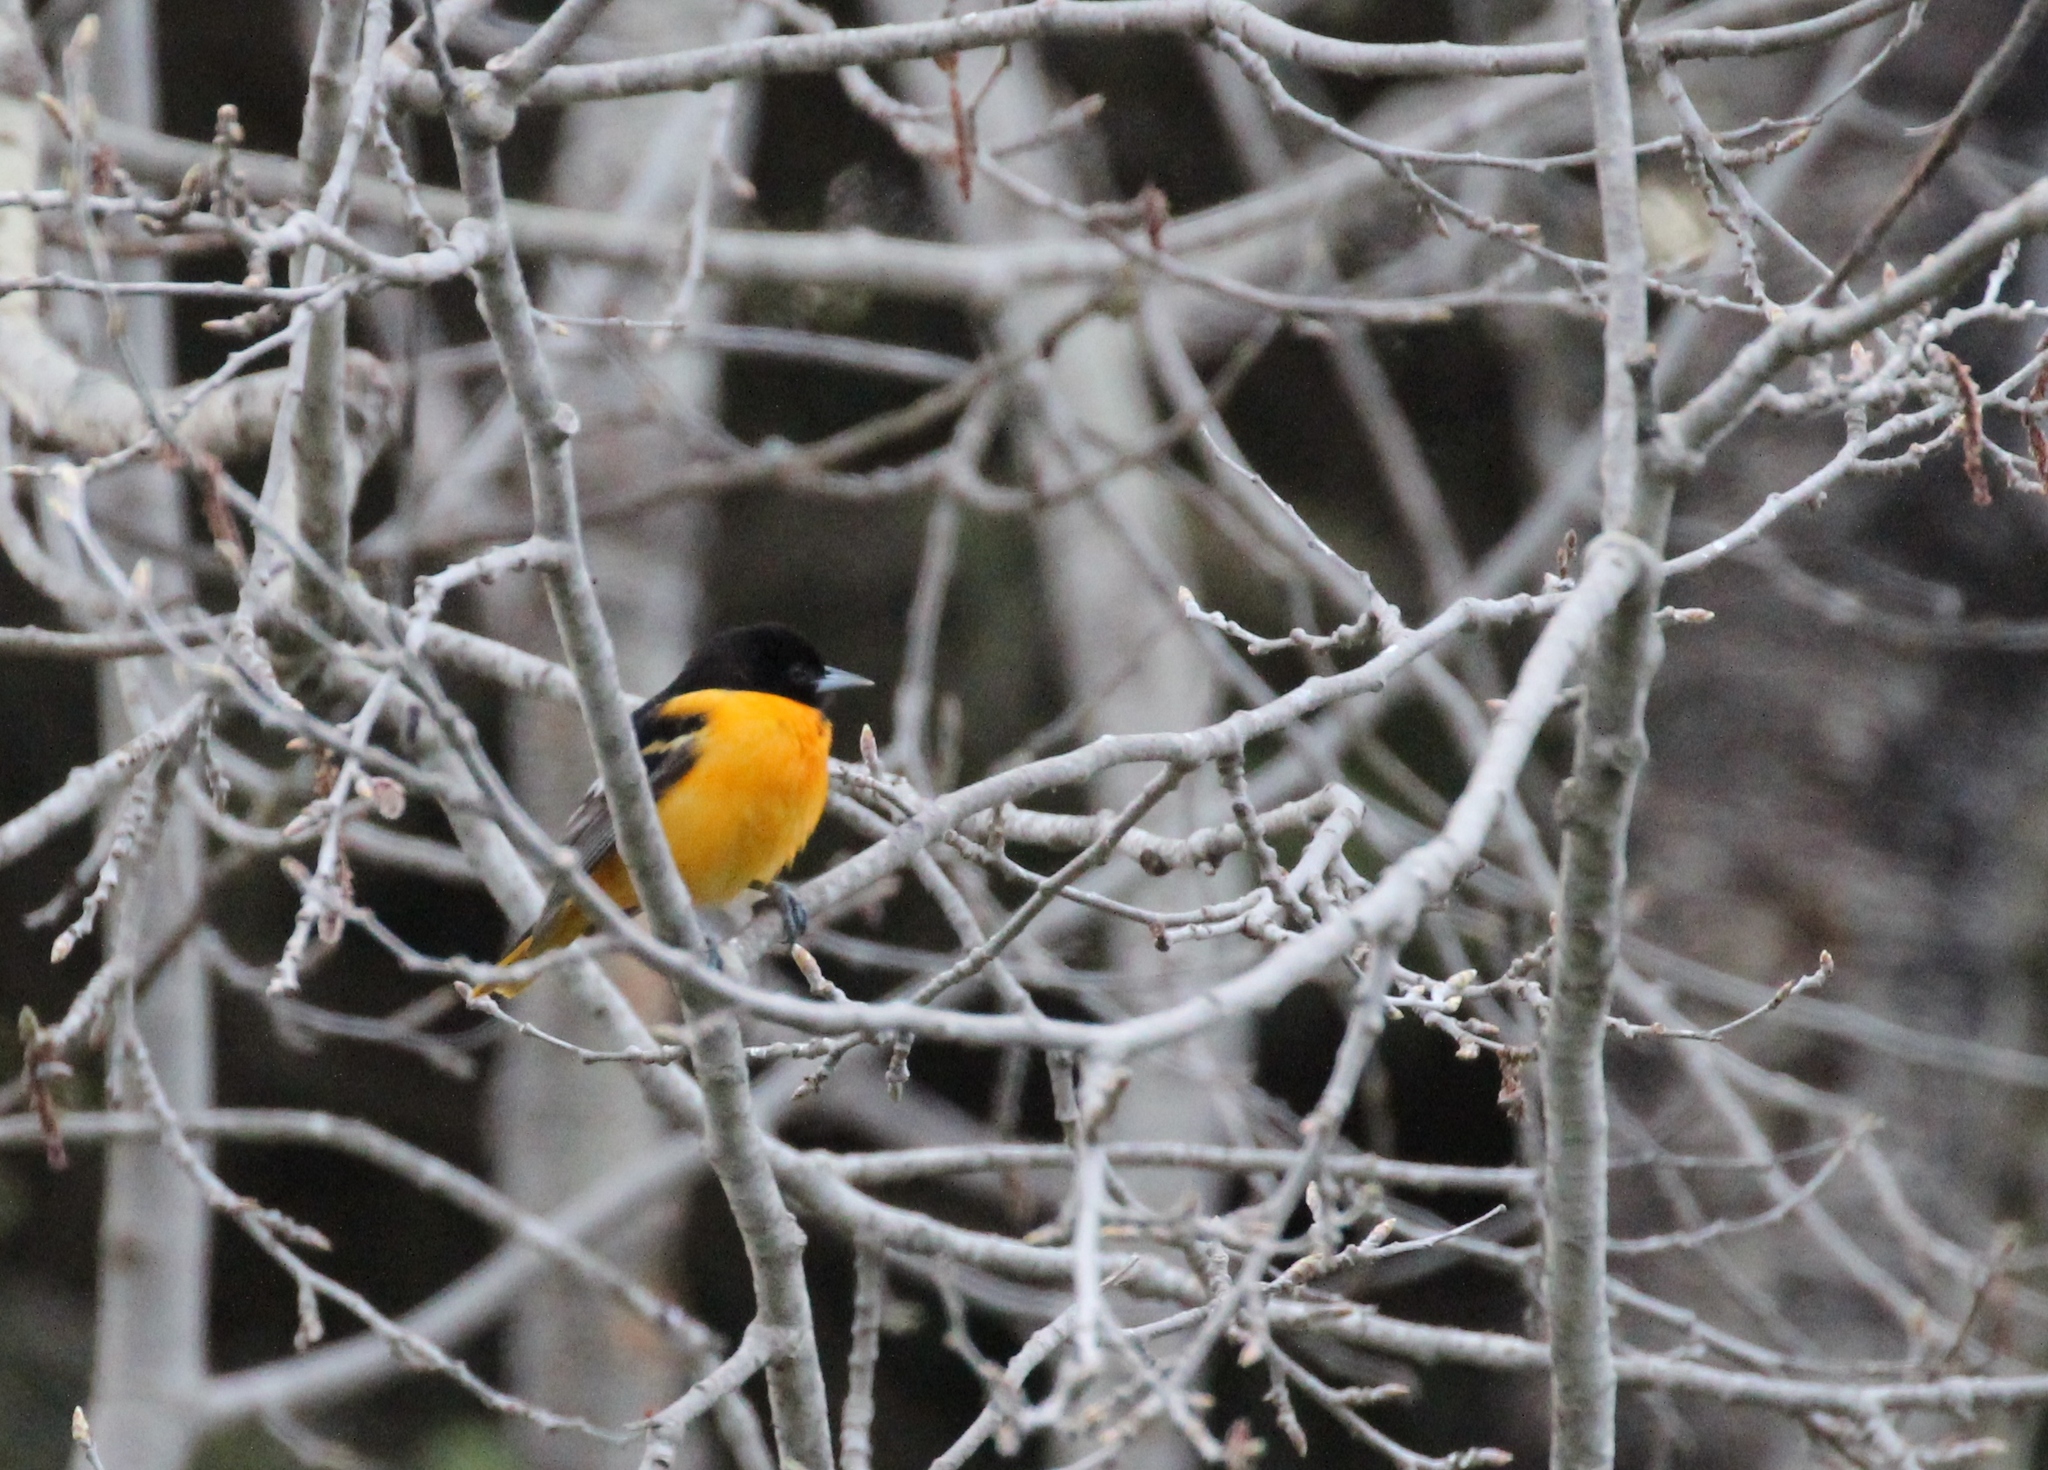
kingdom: Animalia
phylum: Chordata
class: Aves
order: Passeriformes
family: Icteridae
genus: Icterus
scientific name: Icterus galbula
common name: Baltimore oriole
